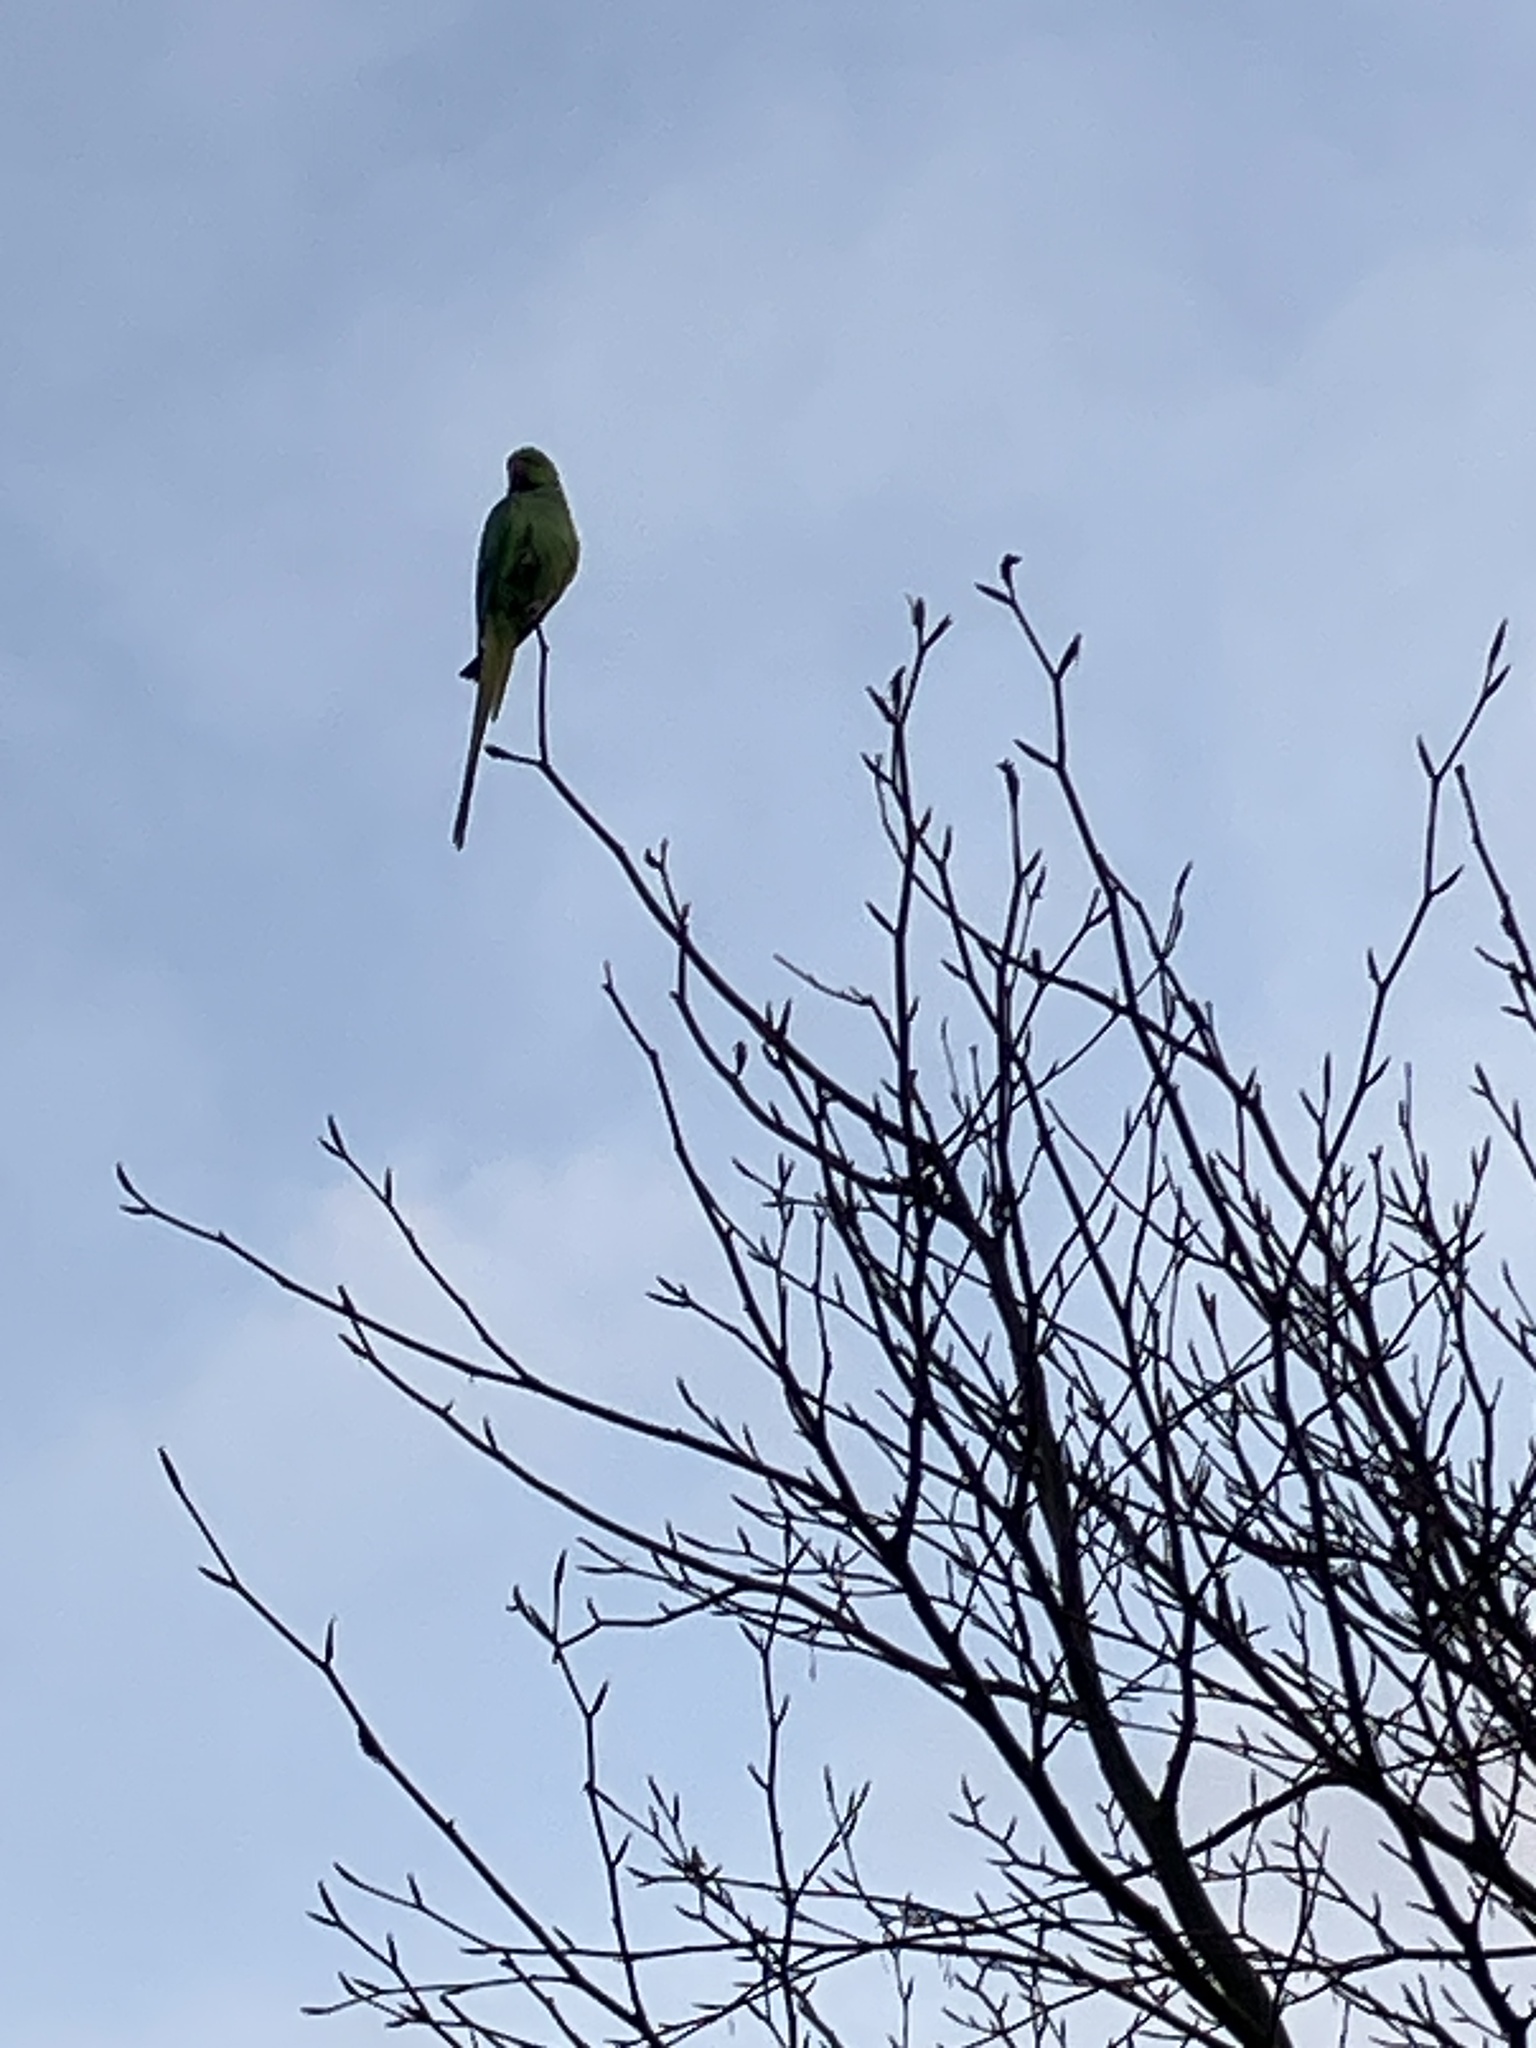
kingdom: Animalia
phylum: Chordata
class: Aves
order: Psittaciformes
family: Psittacidae
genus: Psittacula
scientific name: Psittacula krameri
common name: Rose-ringed parakeet
